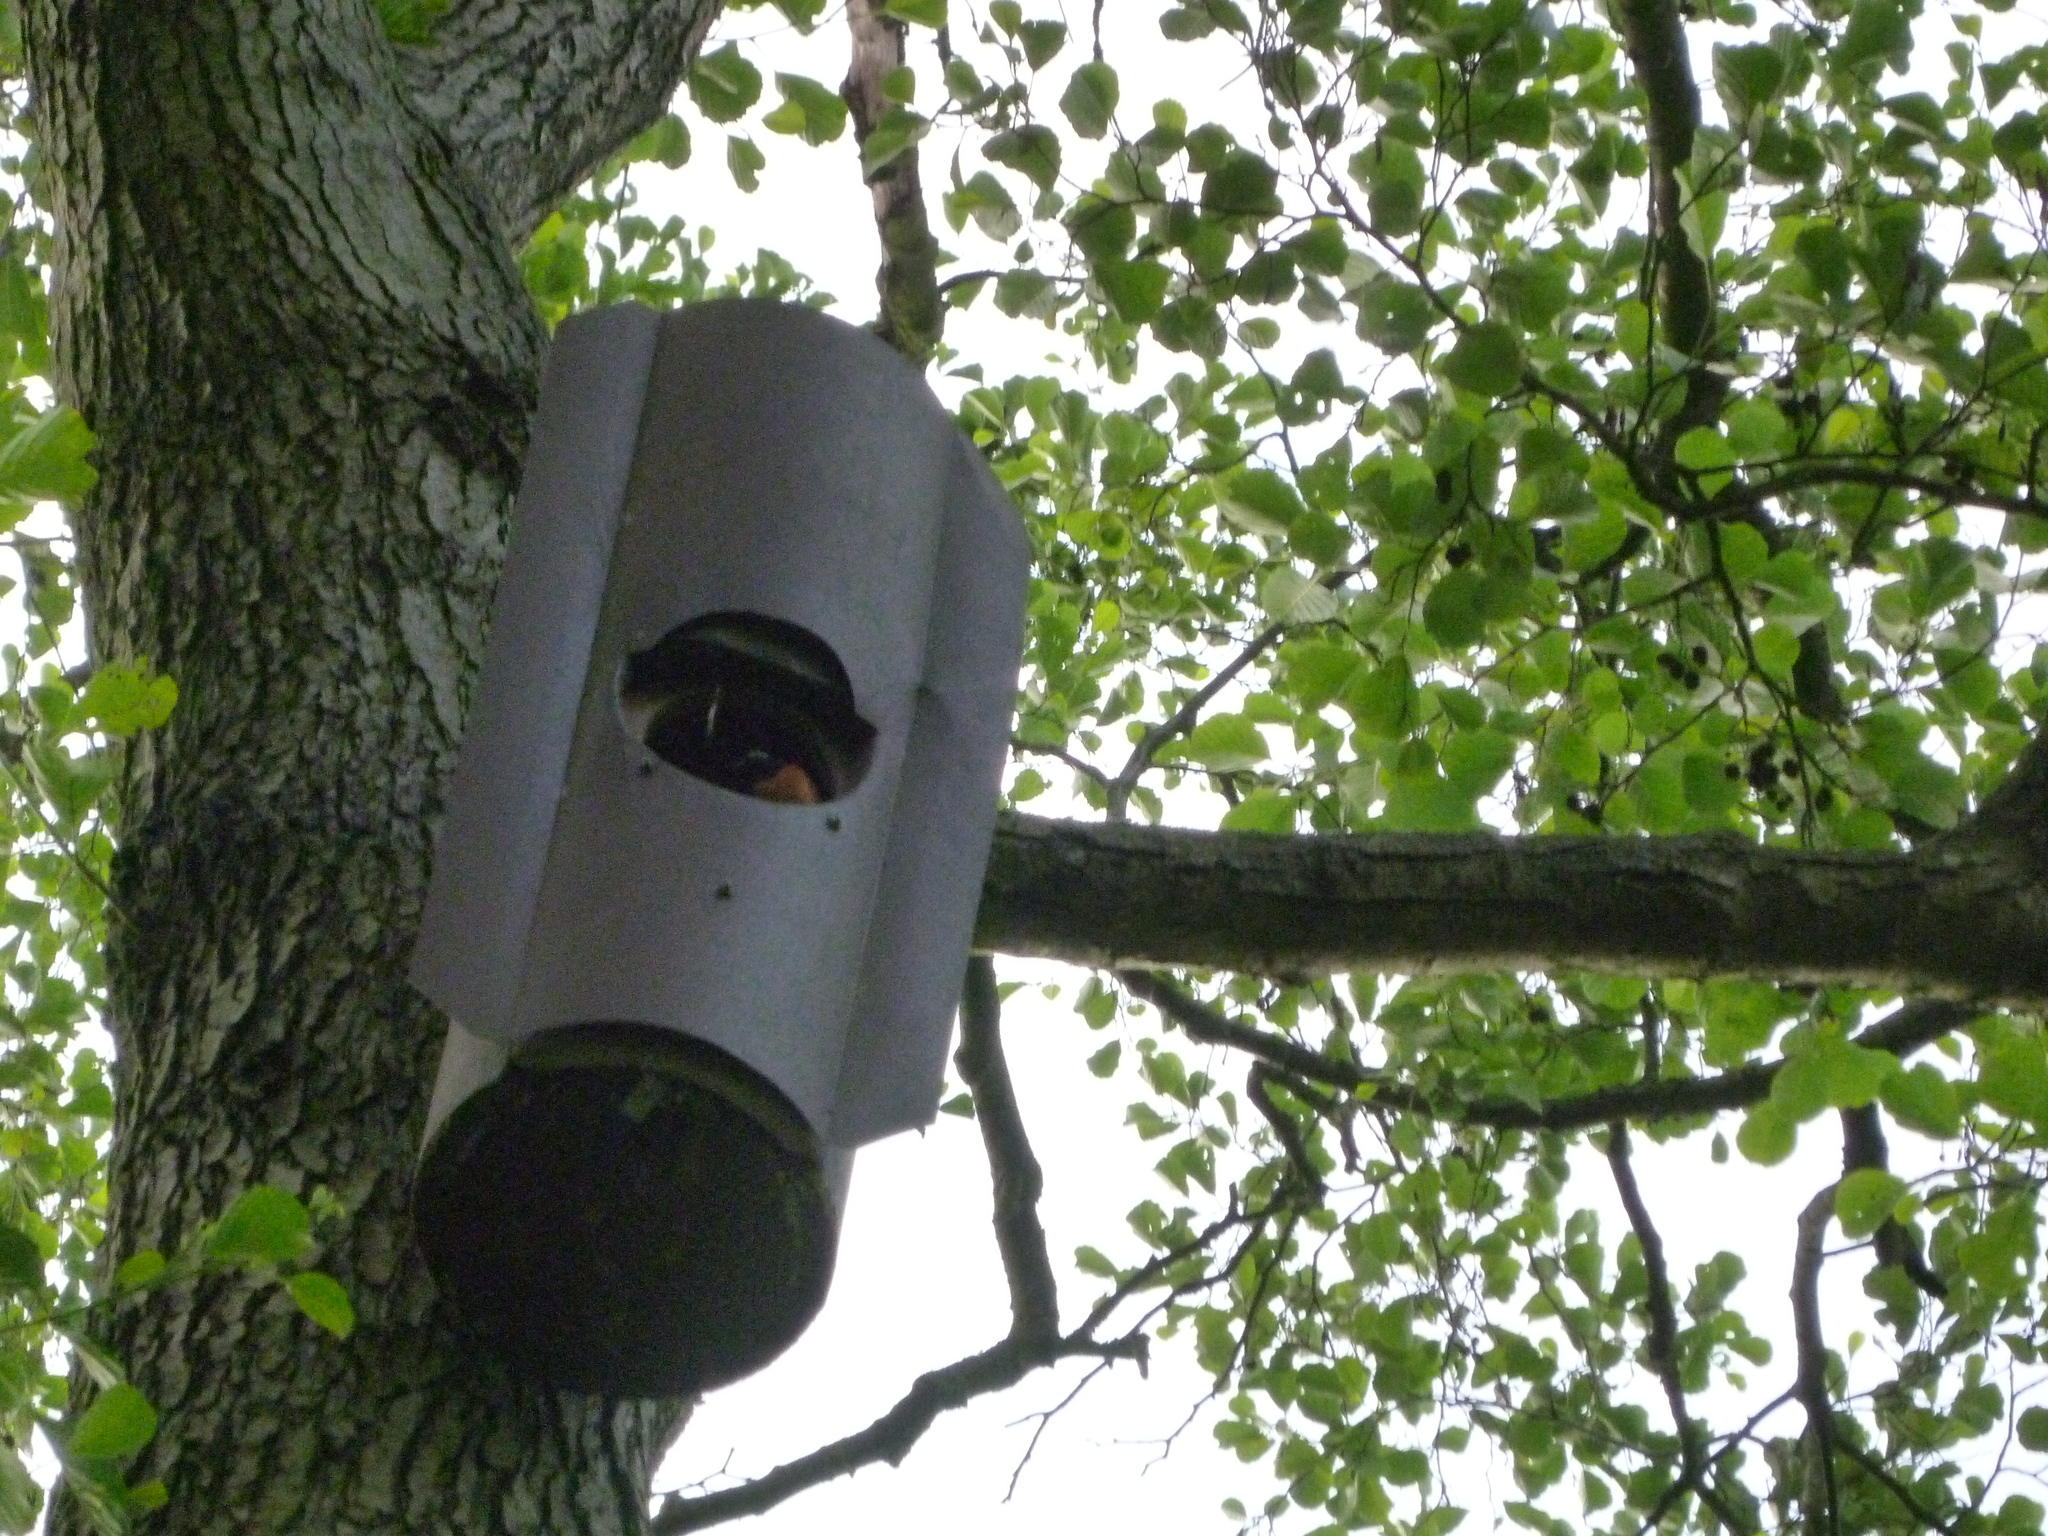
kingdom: Animalia
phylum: Chordata
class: Aves
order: Passeriformes
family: Muscicapidae
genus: Phoenicurus
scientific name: Phoenicurus phoenicurus
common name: Common redstart
